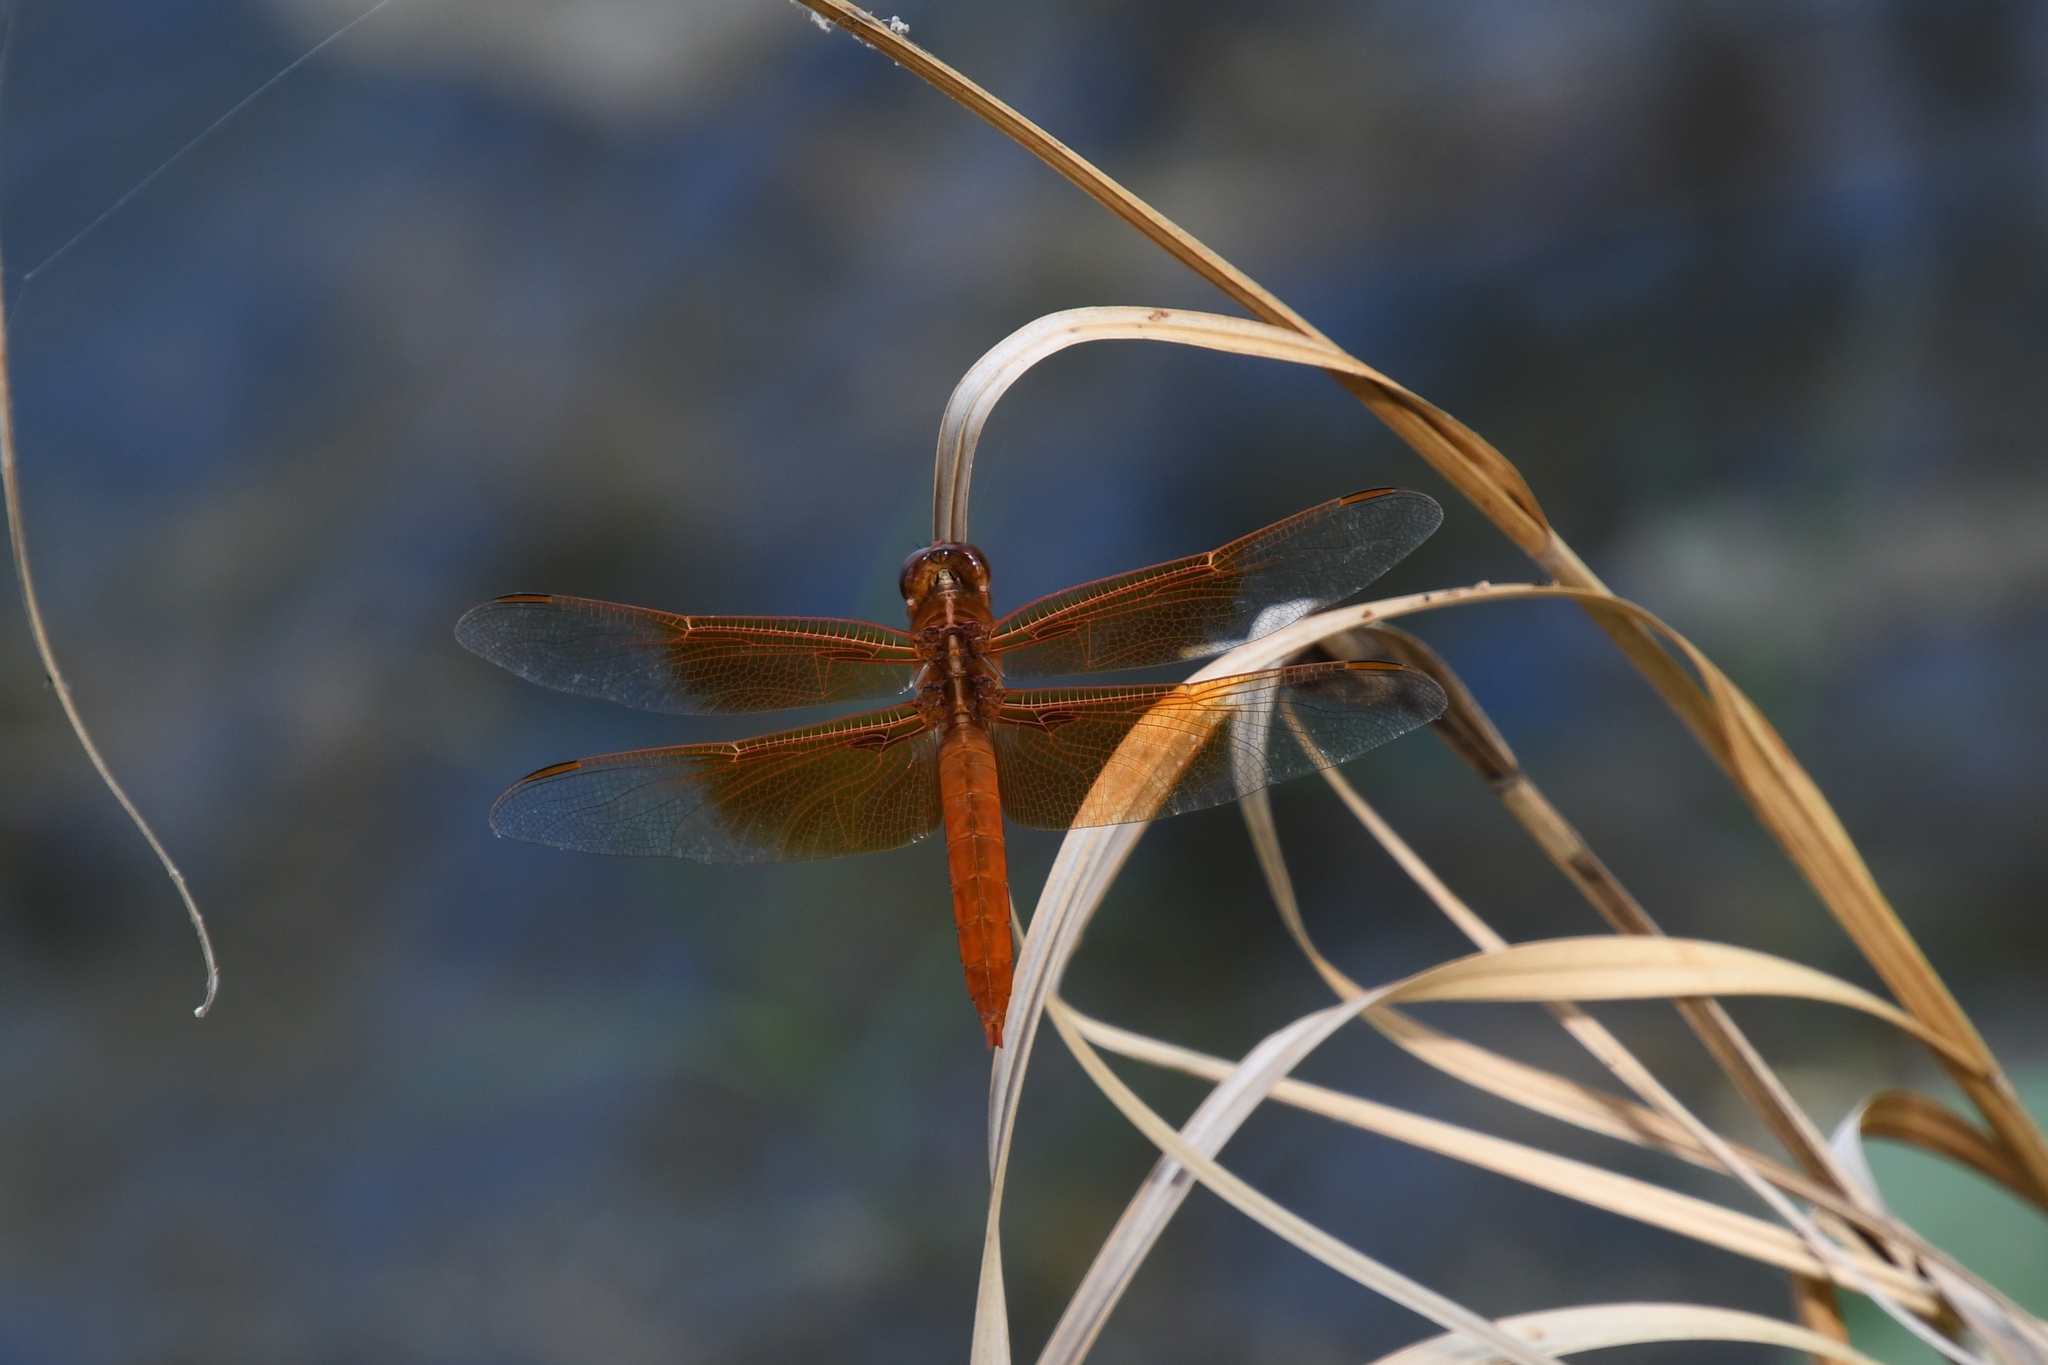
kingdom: Animalia
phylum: Arthropoda
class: Insecta
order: Odonata
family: Libellulidae
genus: Libellula
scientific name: Libellula saturata
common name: Flame skimmer
